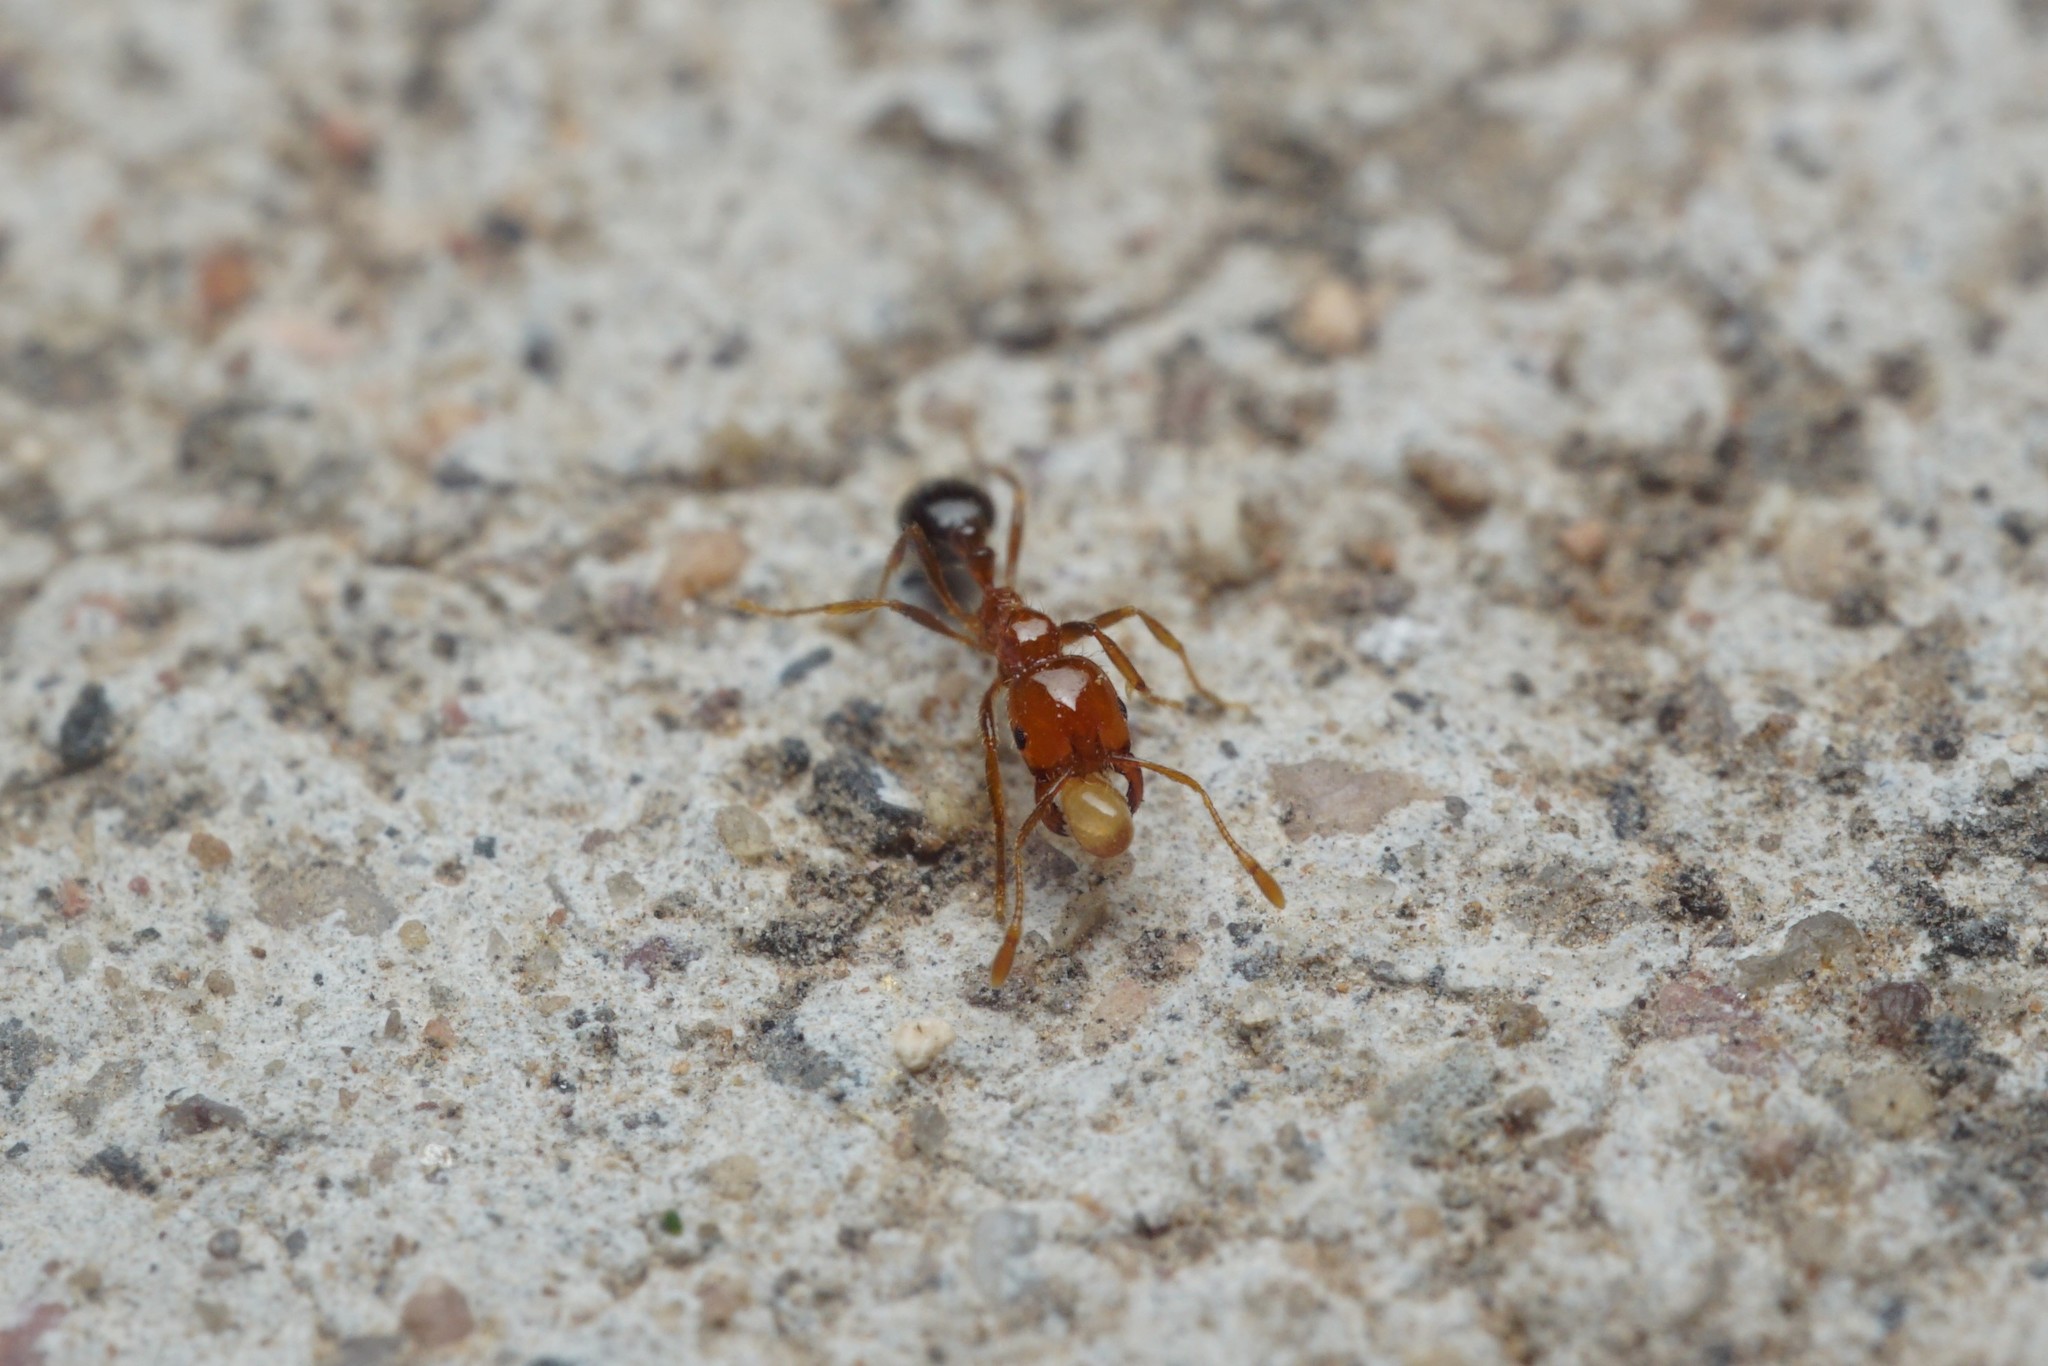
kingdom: Animalia
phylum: Arthropoda
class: Insecta
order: Hymenoptera
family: Formicidae
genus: Solenopsis
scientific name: Solenopsis xyloni
